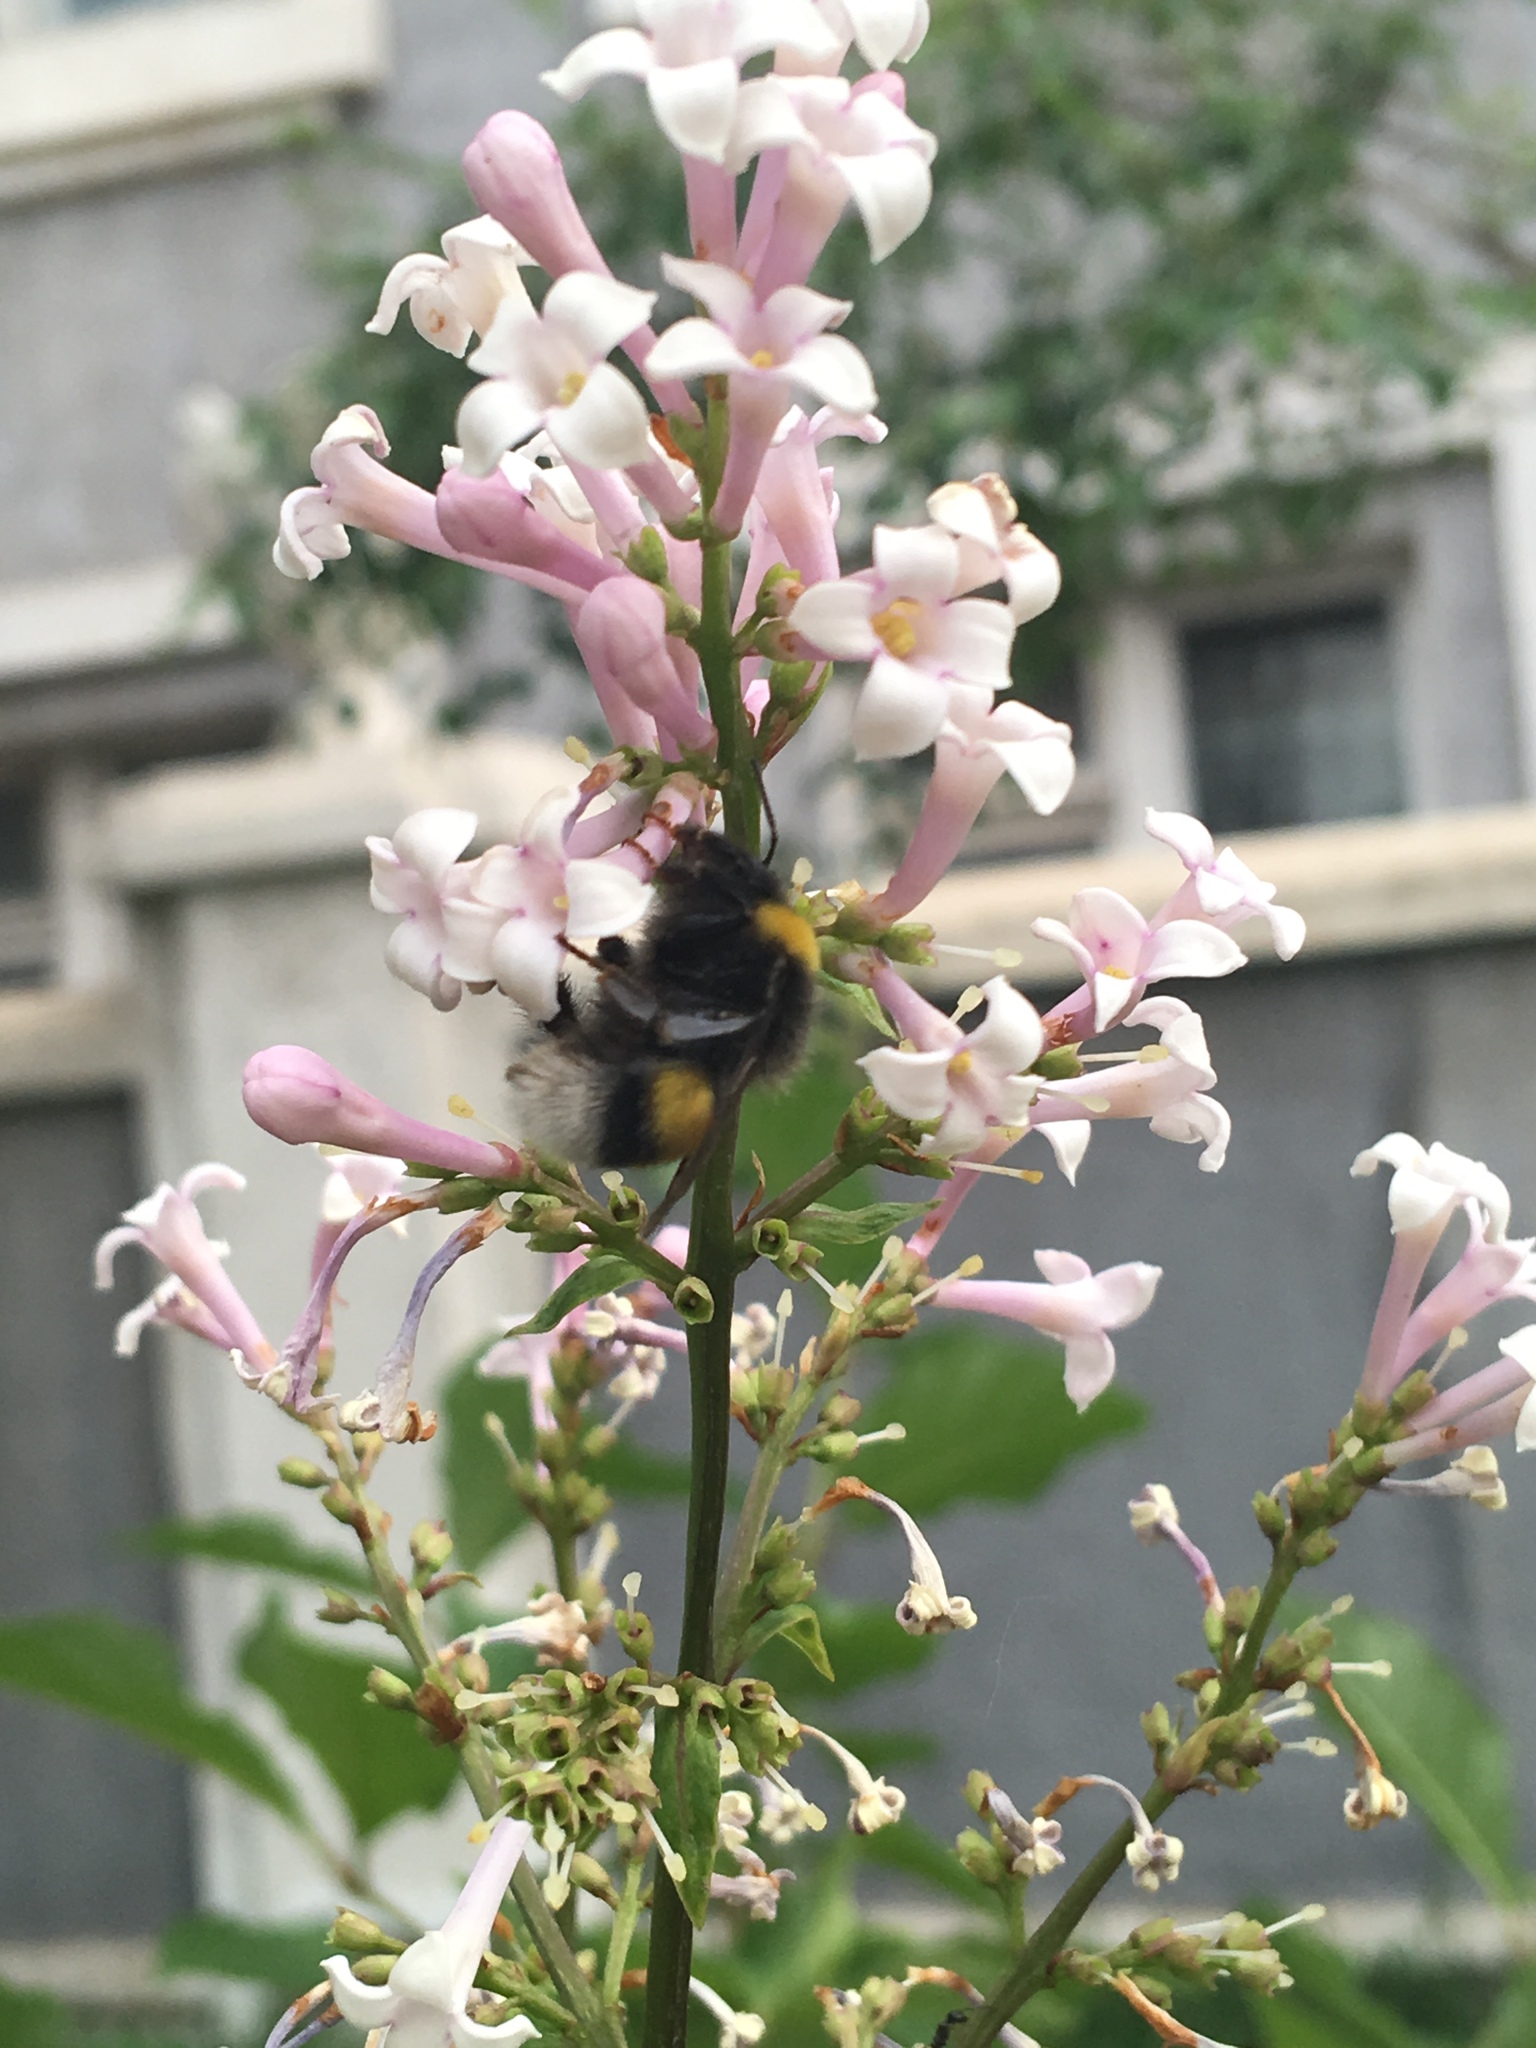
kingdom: Animalia
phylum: Arthropoda
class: Insecta
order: Hymenoptera
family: Apidae
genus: Bombus
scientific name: Bombus lucorum
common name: White-tailed bumblebee
